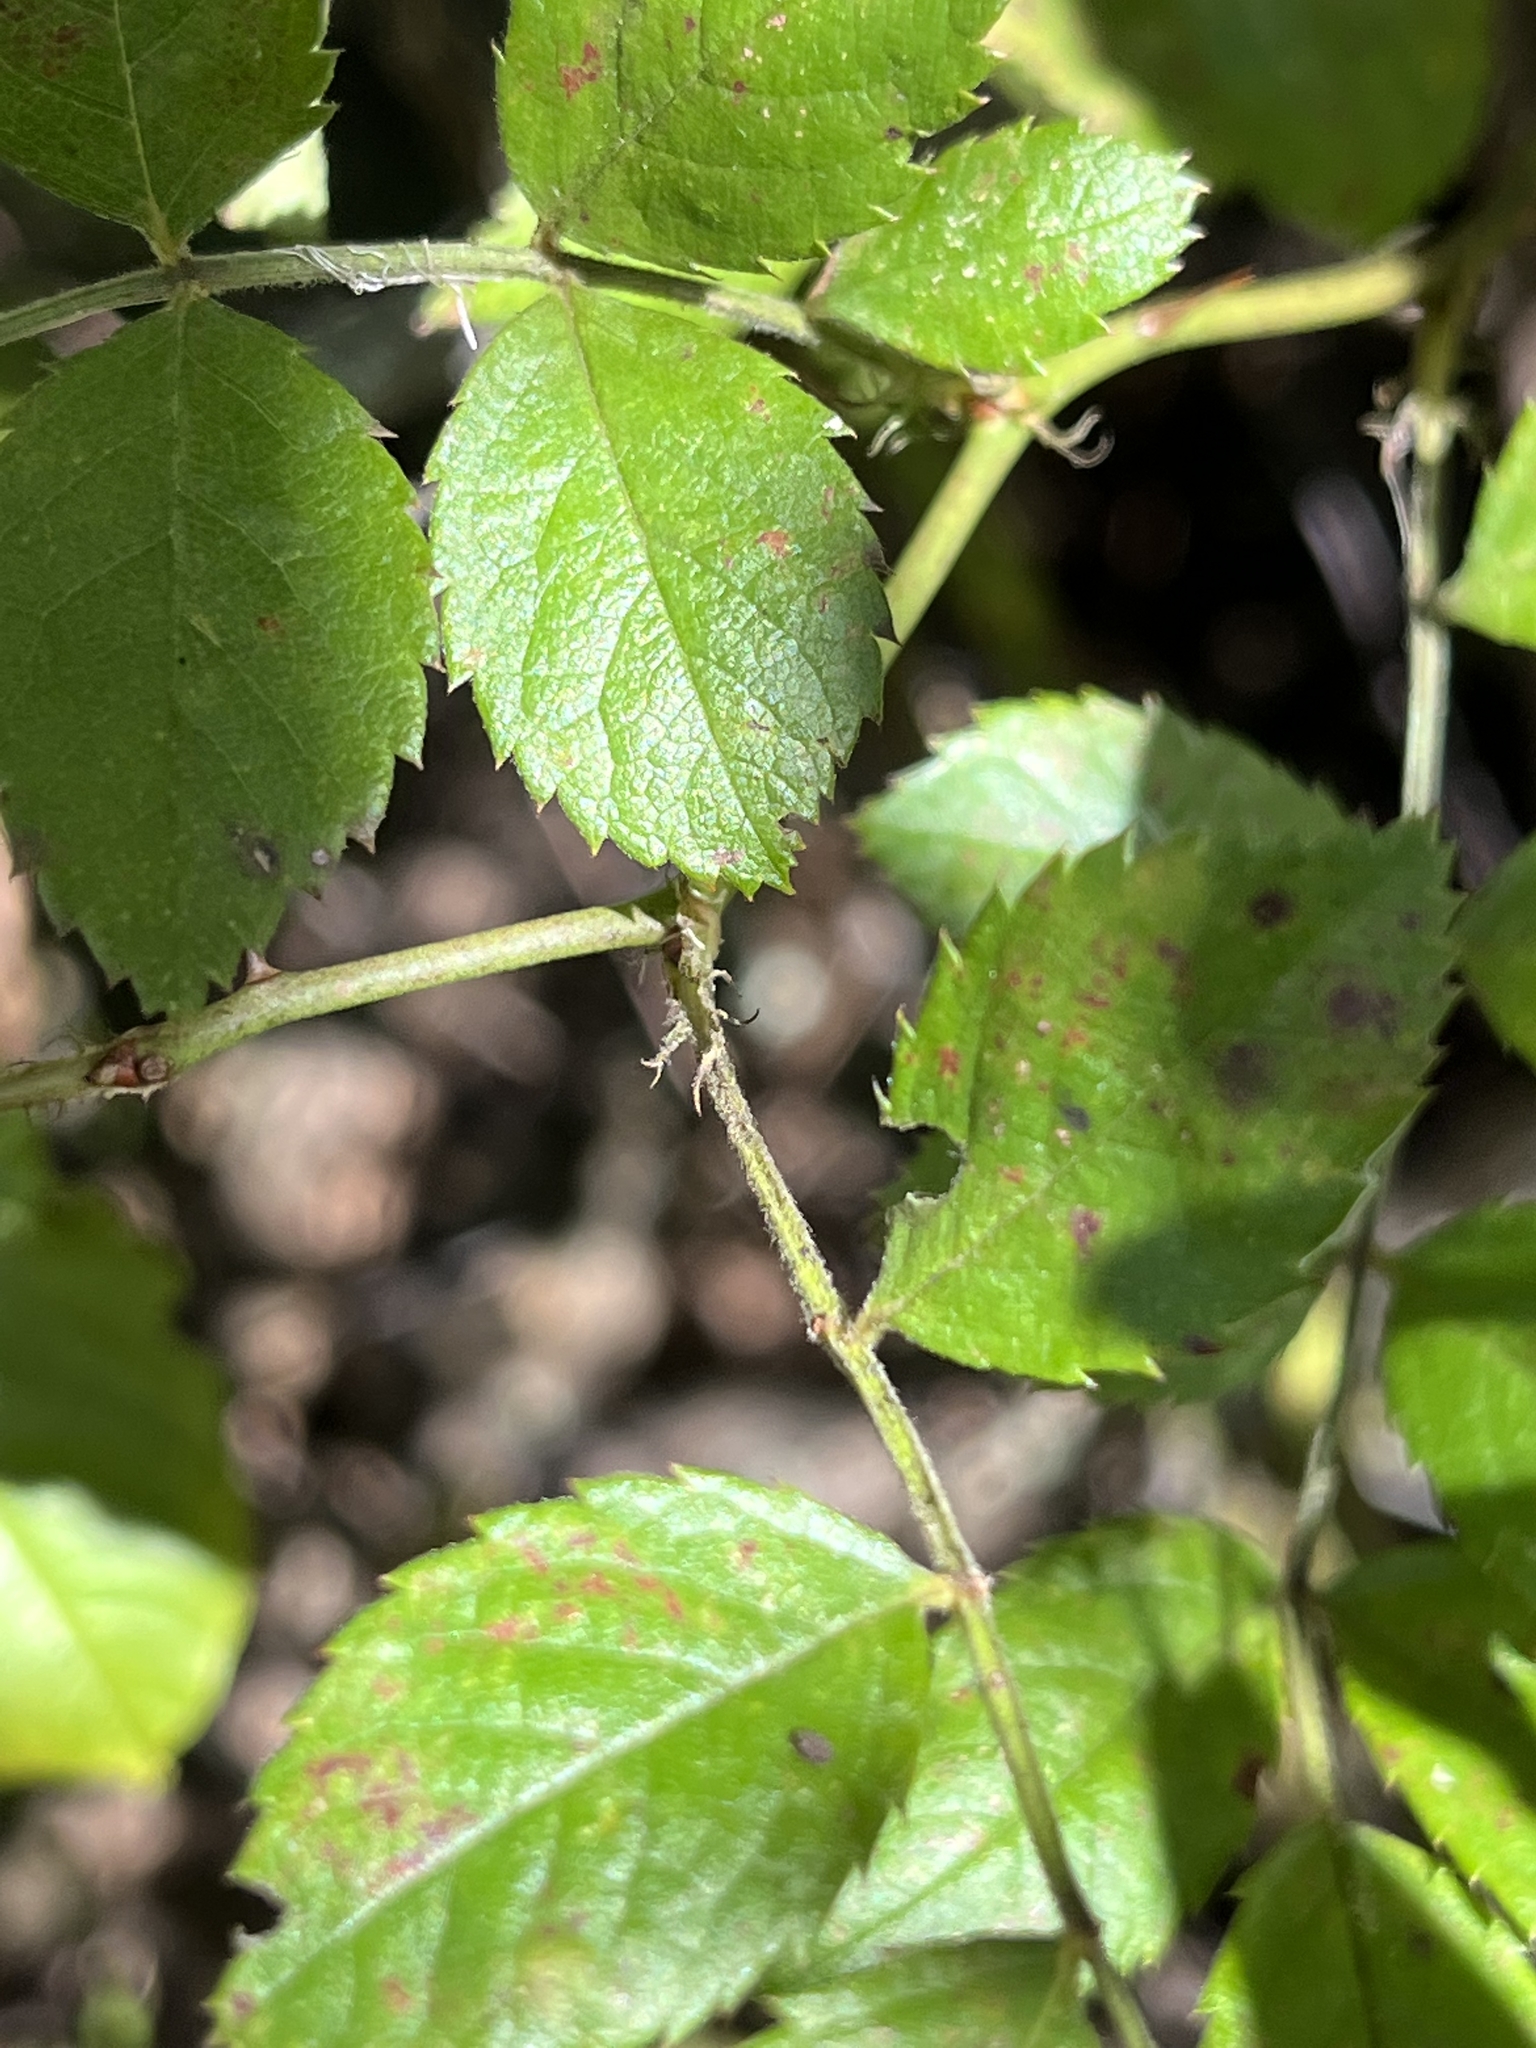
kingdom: Plantae
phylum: Tracheophyta
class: Magnoliopsida
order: Rosales
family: Rosaceae
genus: Rosa
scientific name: Rosa multiflora
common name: Multiflora rose
